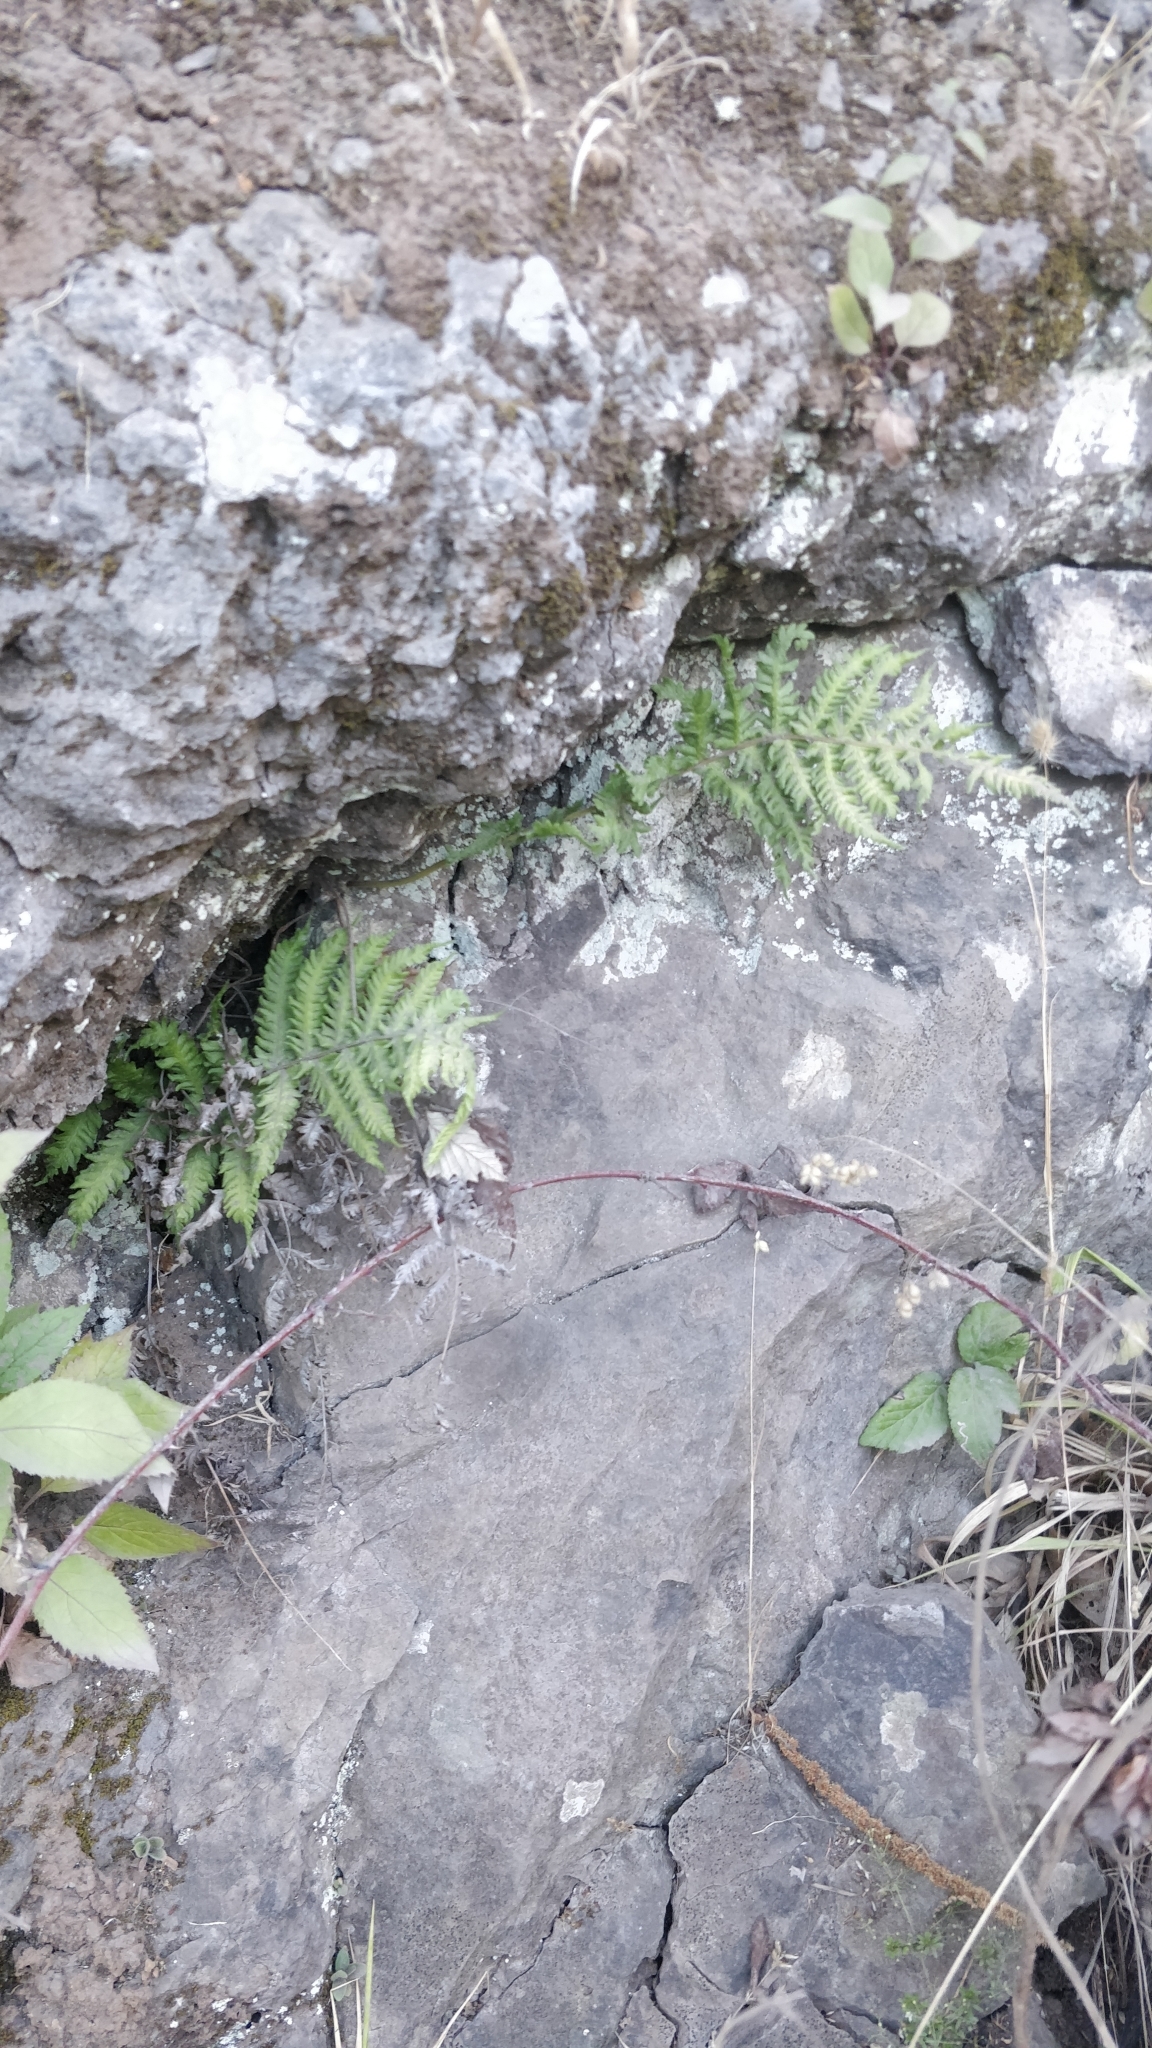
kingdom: Plantae
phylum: Tracheophyta
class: Polypodiopsida
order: Polypodiales
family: Thelypteridaceae
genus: Christella
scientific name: Christella dentata
